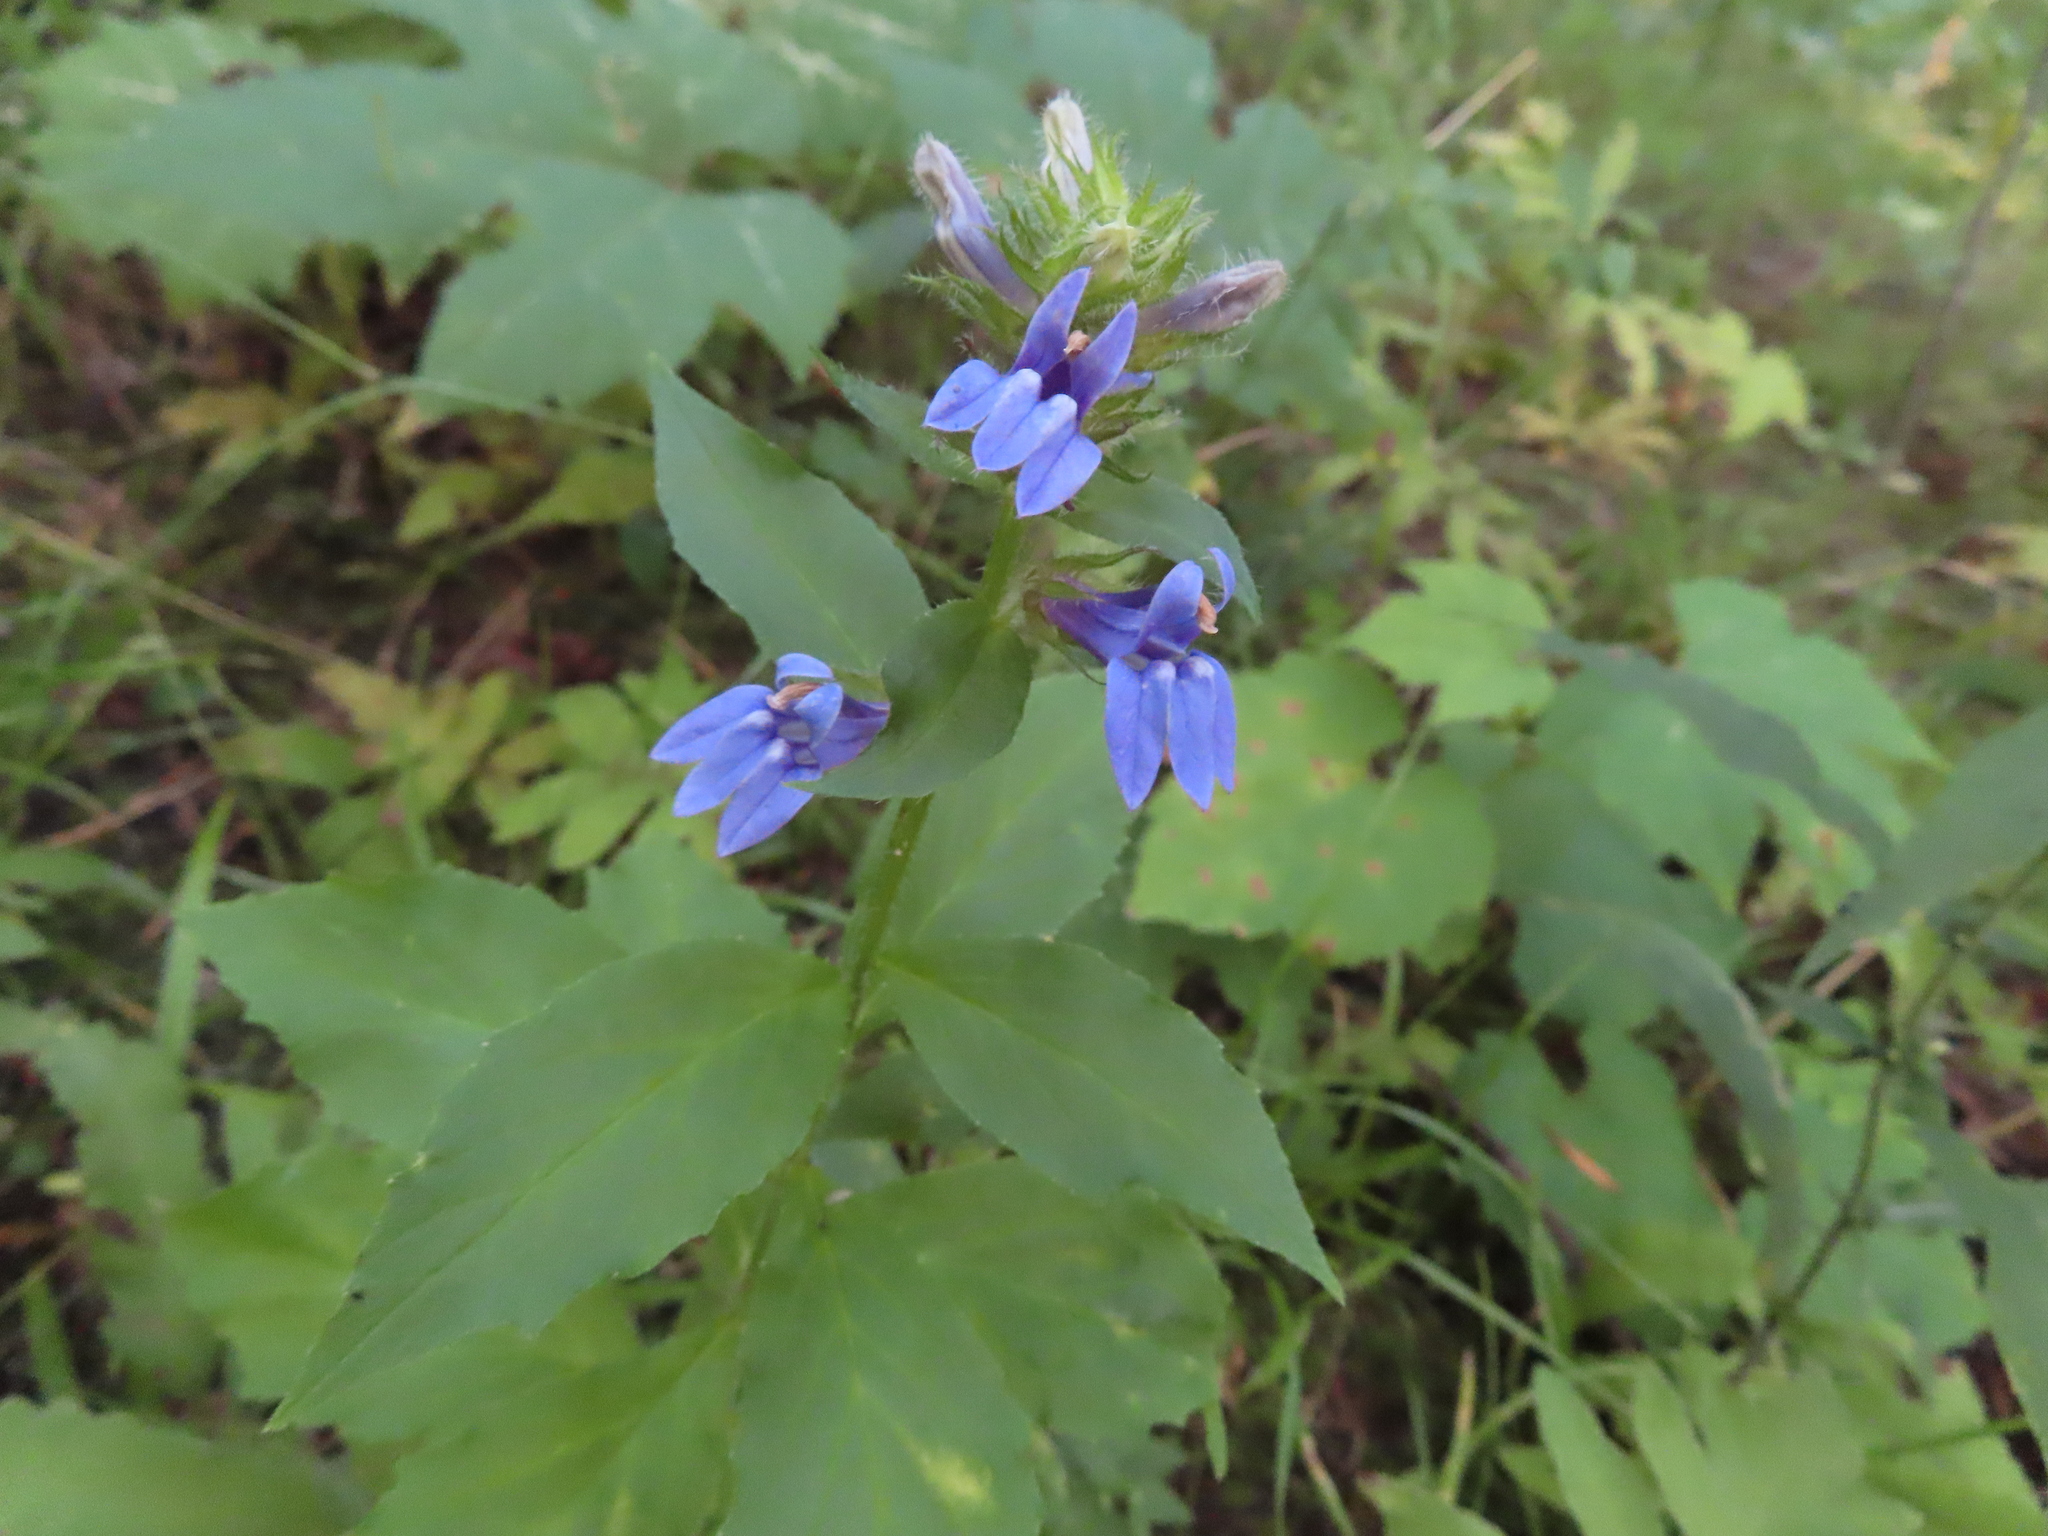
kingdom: Plantae
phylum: Tracheophyta
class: Magnoliopsida
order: Asterales
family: Campanulaceae
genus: Lobelia
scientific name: Lobelia siphilitica
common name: Great lobelia
